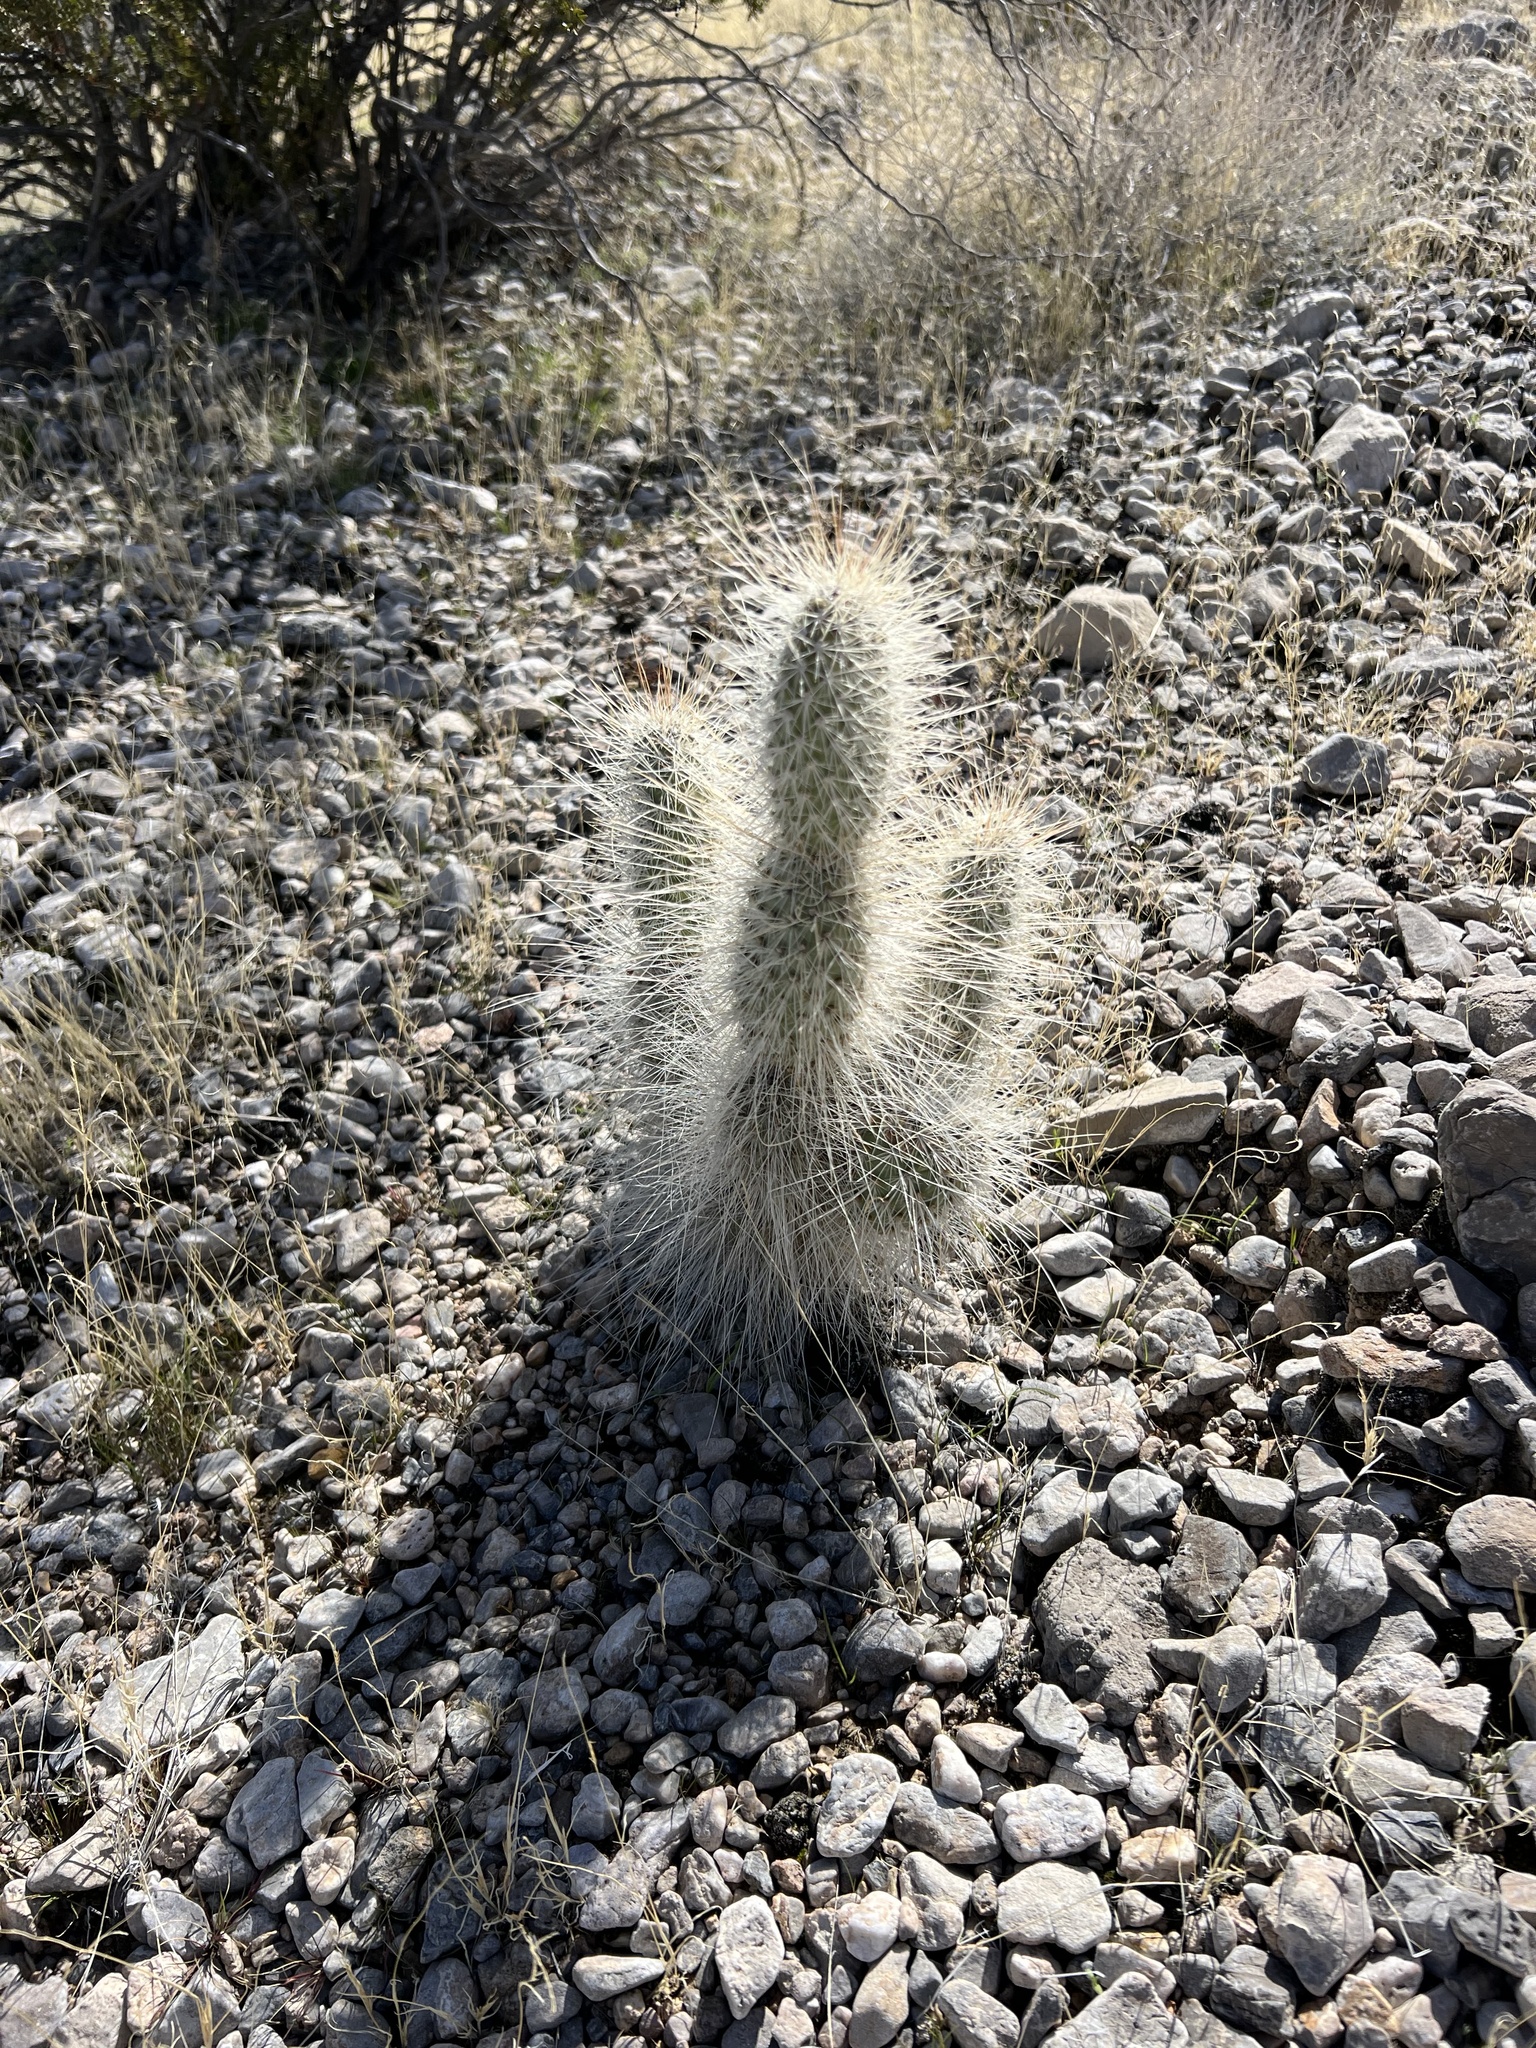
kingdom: Plantae
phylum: Tracheophyta
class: Magnoliopsida
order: Caryophyllales
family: Cactaceae
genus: Opuntia
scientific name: Opuntia polyacantha
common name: Plains prickly-pear
